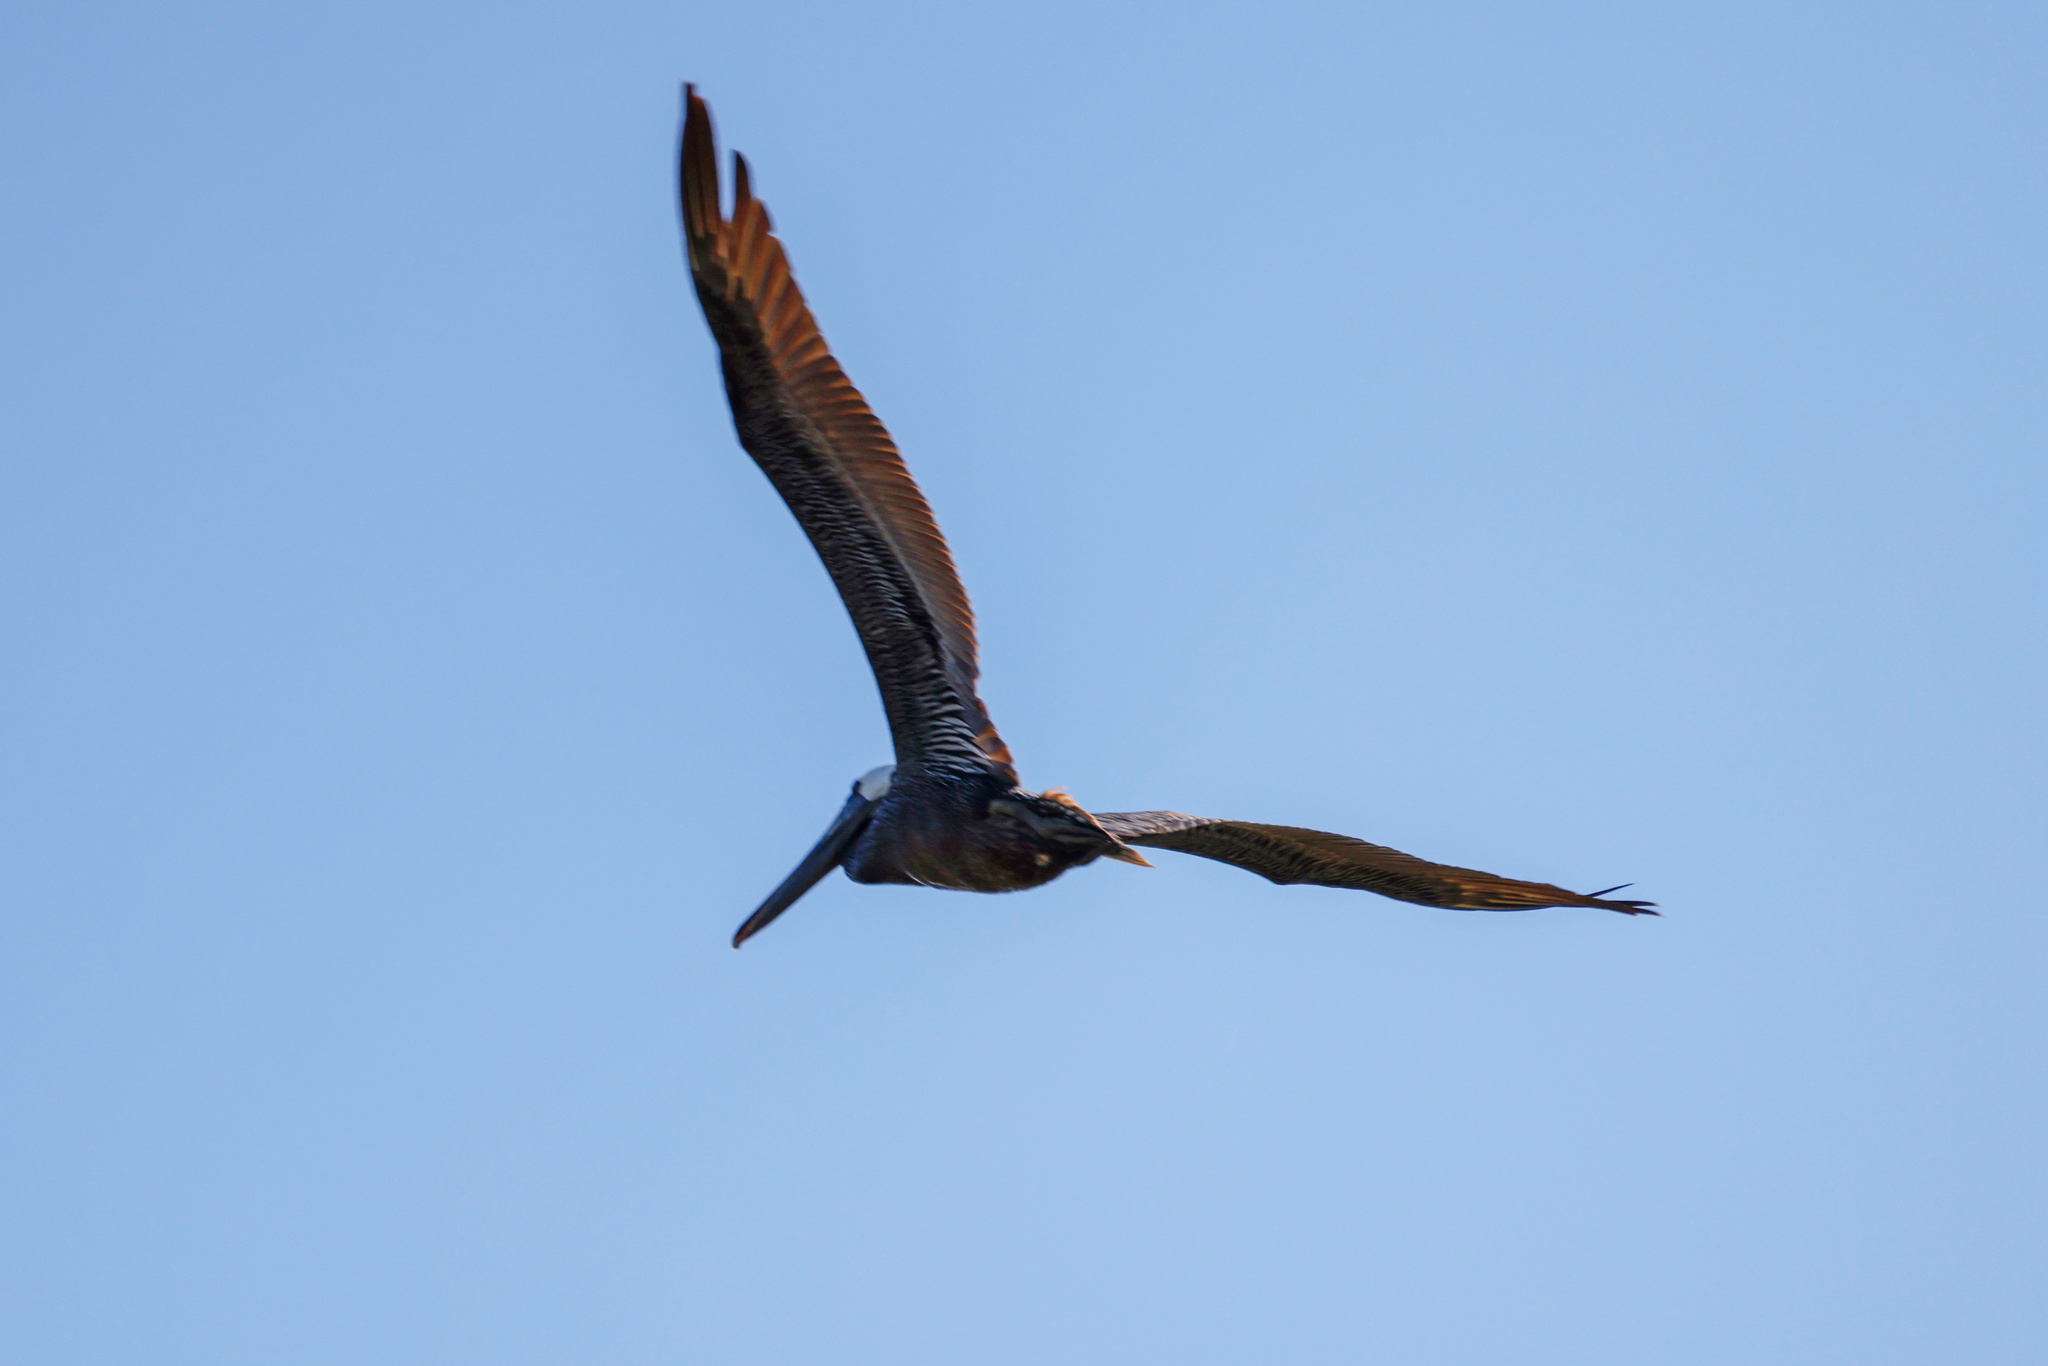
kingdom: Animalia
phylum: Chordata
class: Aves
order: Pelecaniformes
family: Pelecanidae
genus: Pelecanus
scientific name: Pelecanus occidentalis
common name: Brown pelican
